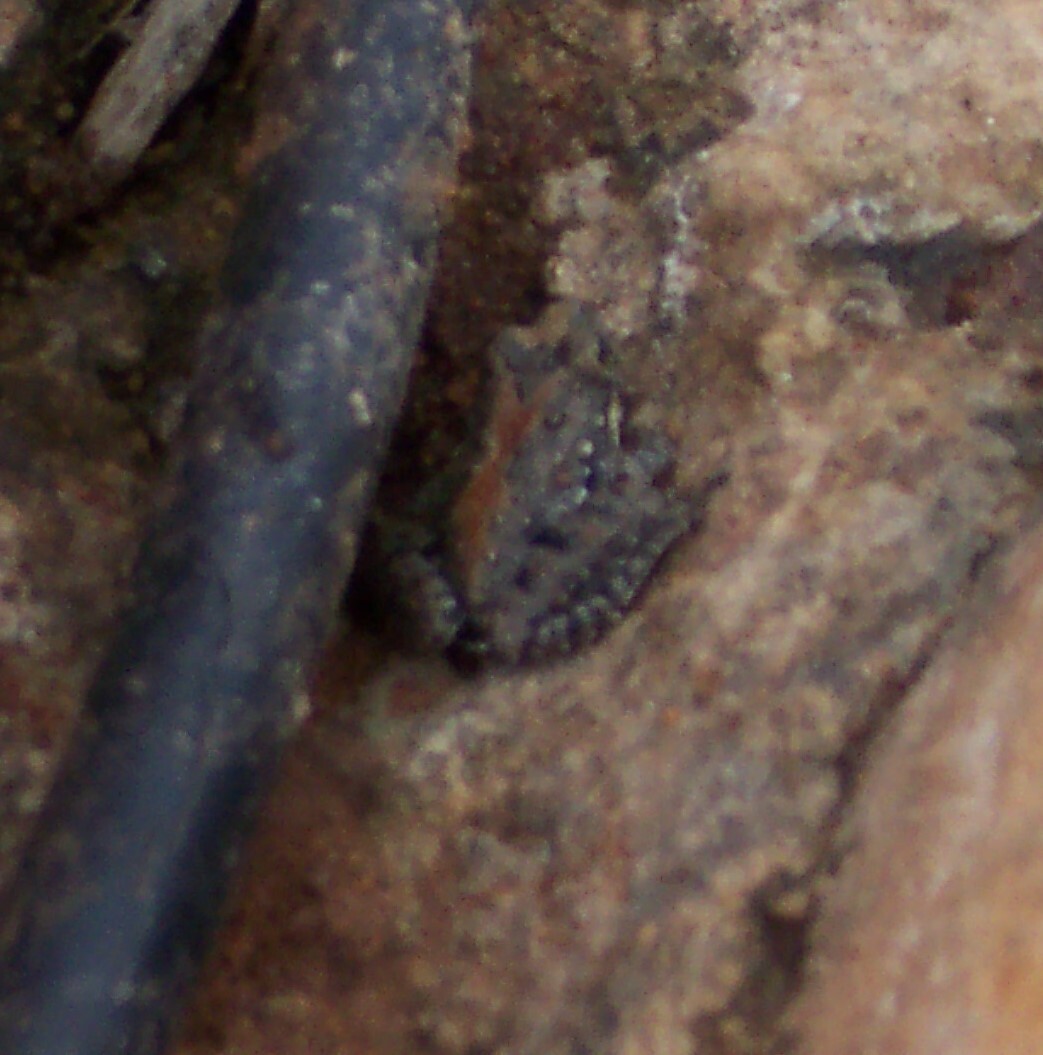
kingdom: Animalia
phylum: Chordata
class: Amphibia
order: Anura
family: Hylidae
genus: Acris
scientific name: Acris blanchardi
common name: Blanchard's cricket frog
